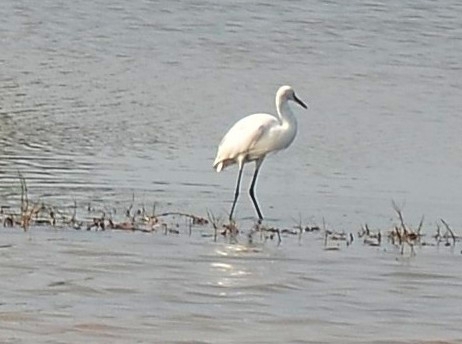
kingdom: Animalia
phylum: Chordata
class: Aves
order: Pelecaniformes
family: Ardeidae
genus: Egretta
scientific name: Egretta garzetta
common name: Little egret
